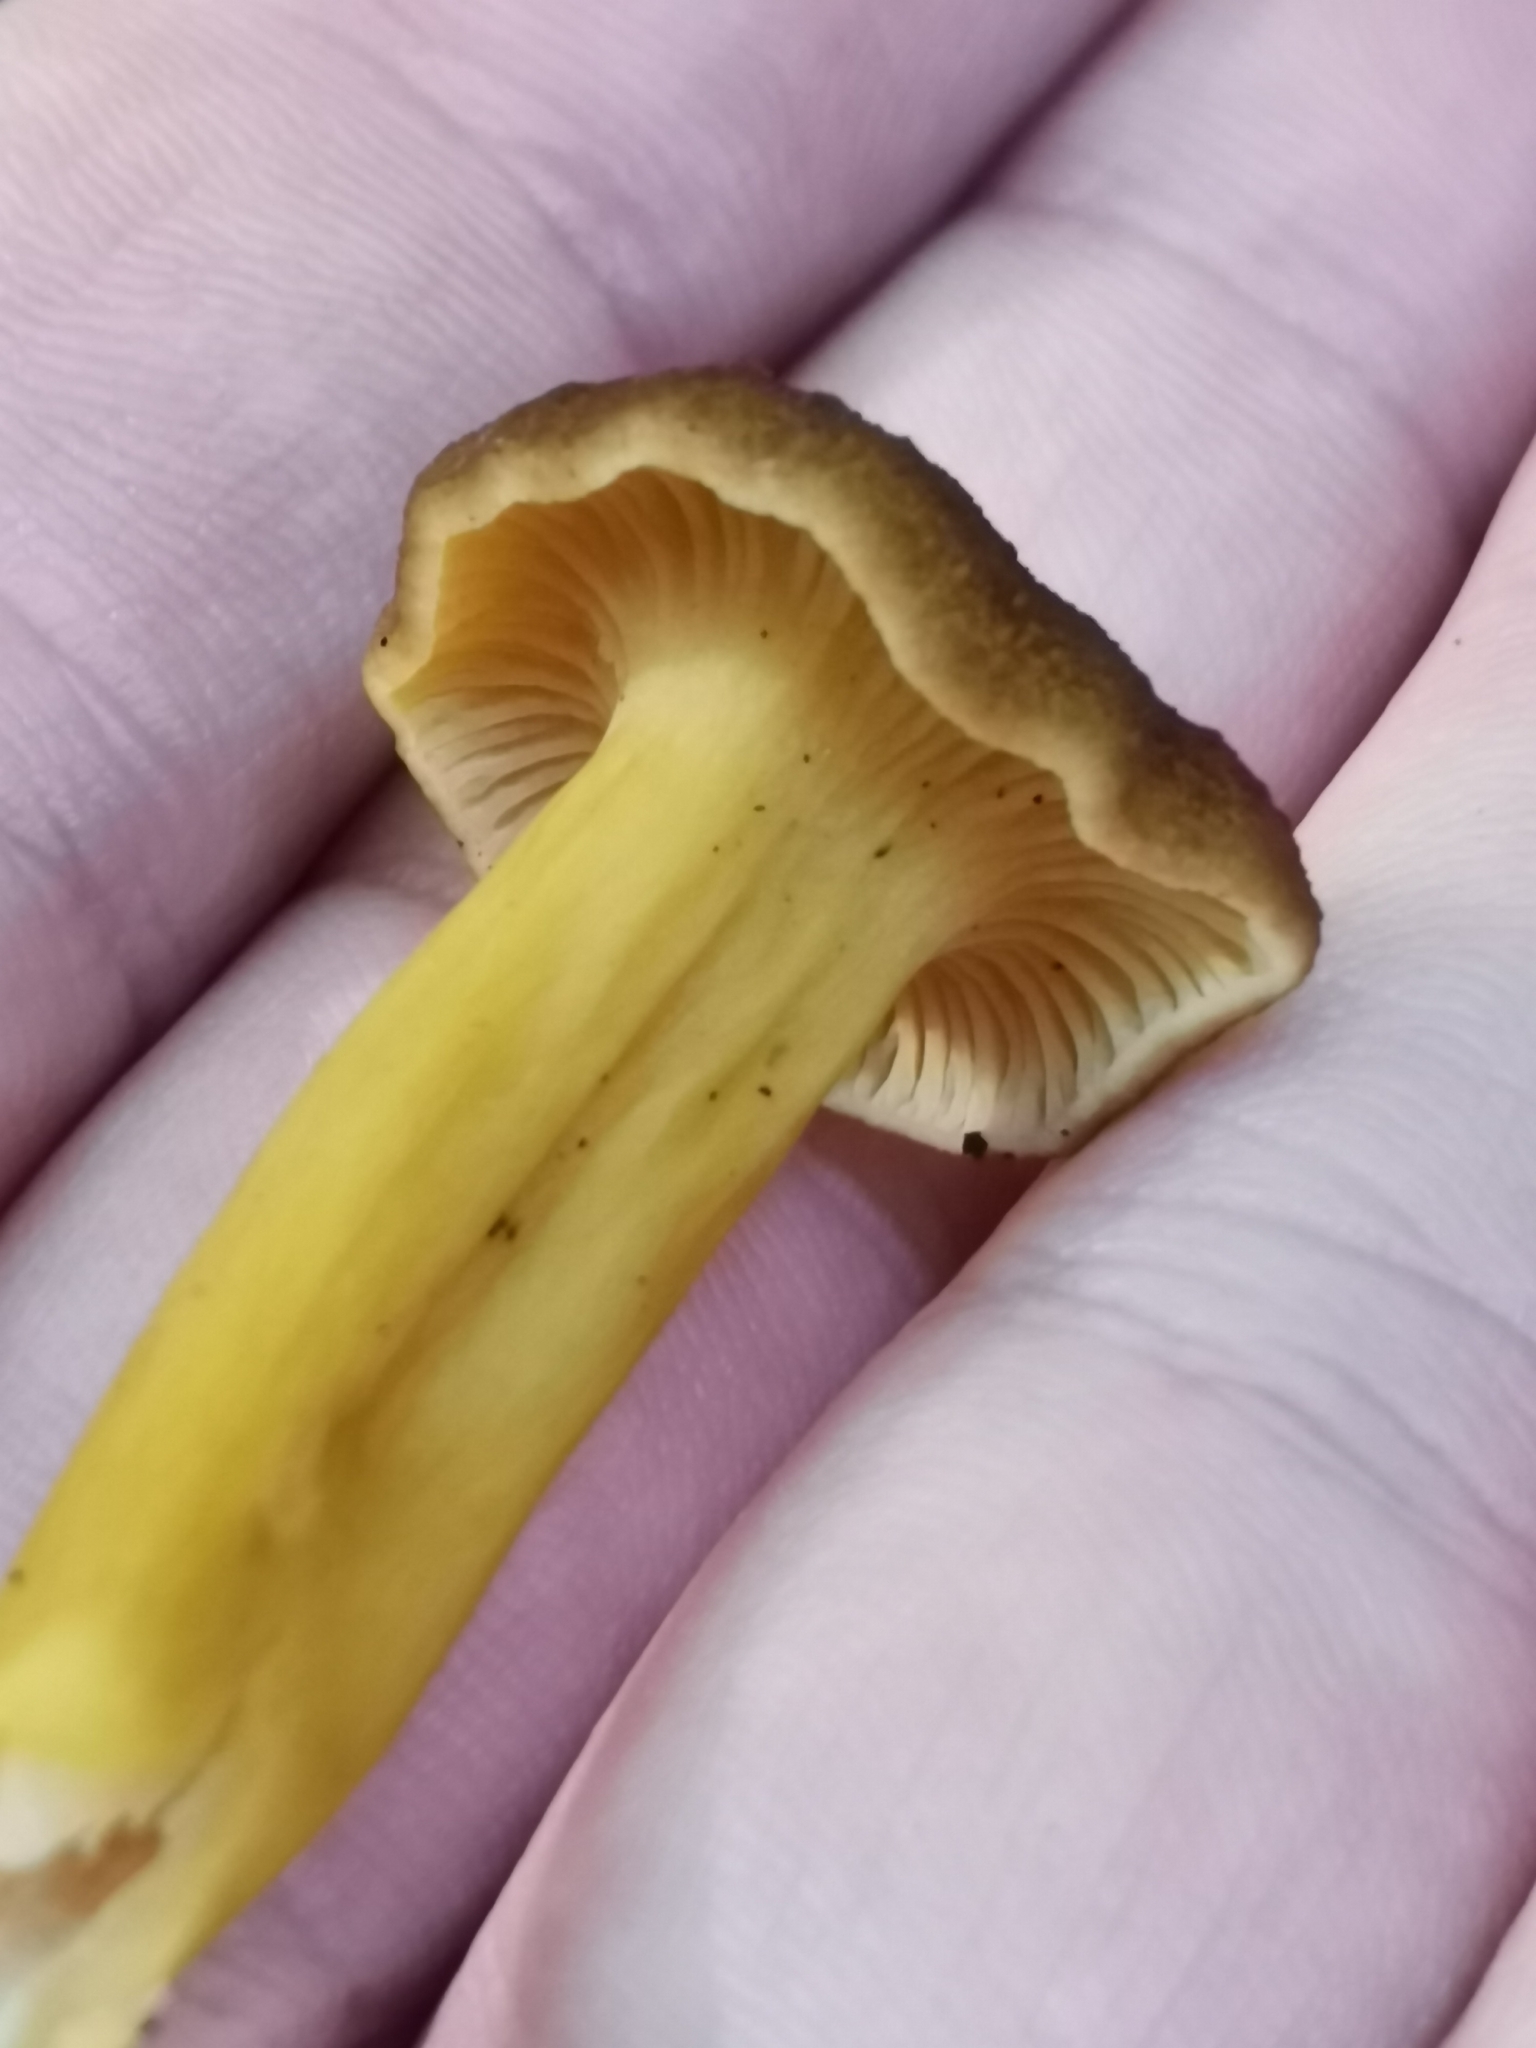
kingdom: Fungi
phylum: Basidiomycota
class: Agaricomycetes
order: Cantharellales
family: Hydnaceae
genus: Craterellus
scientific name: Craterellus tubaeformis
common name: Yellowfoot
